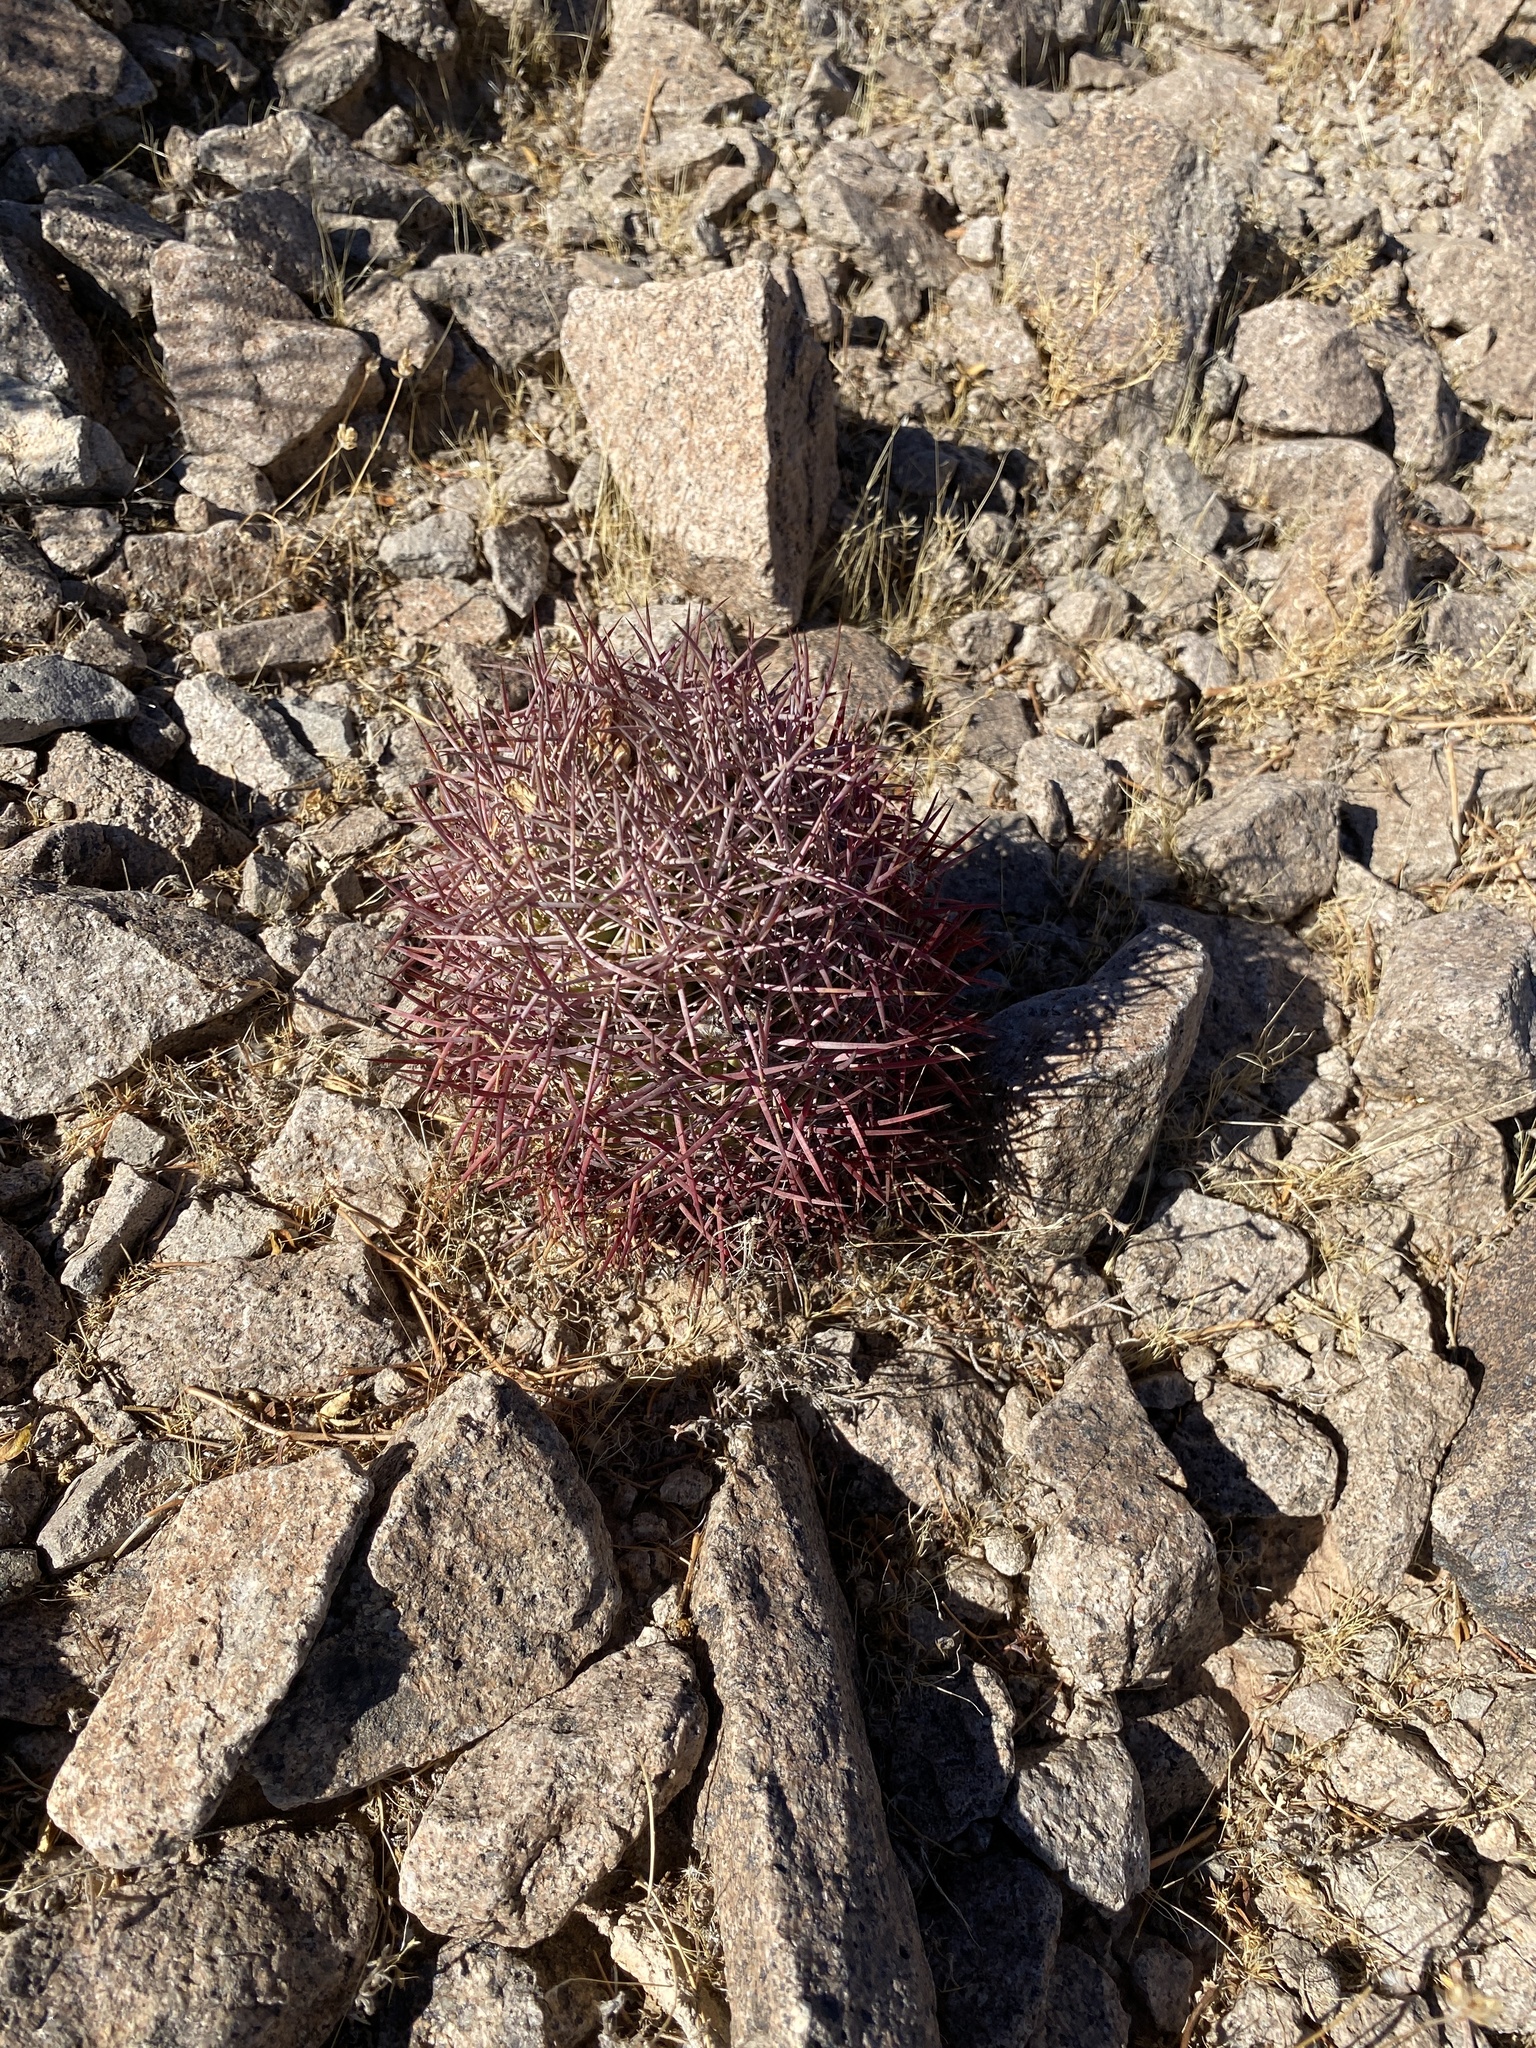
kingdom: Plantae
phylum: Tracheophyta
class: Magnoliopsida
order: Caryophyllales
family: Cactaceae
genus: Sclerocactus
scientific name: Sclerocactus johnsonii
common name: Eight-spine fishhook cactus
